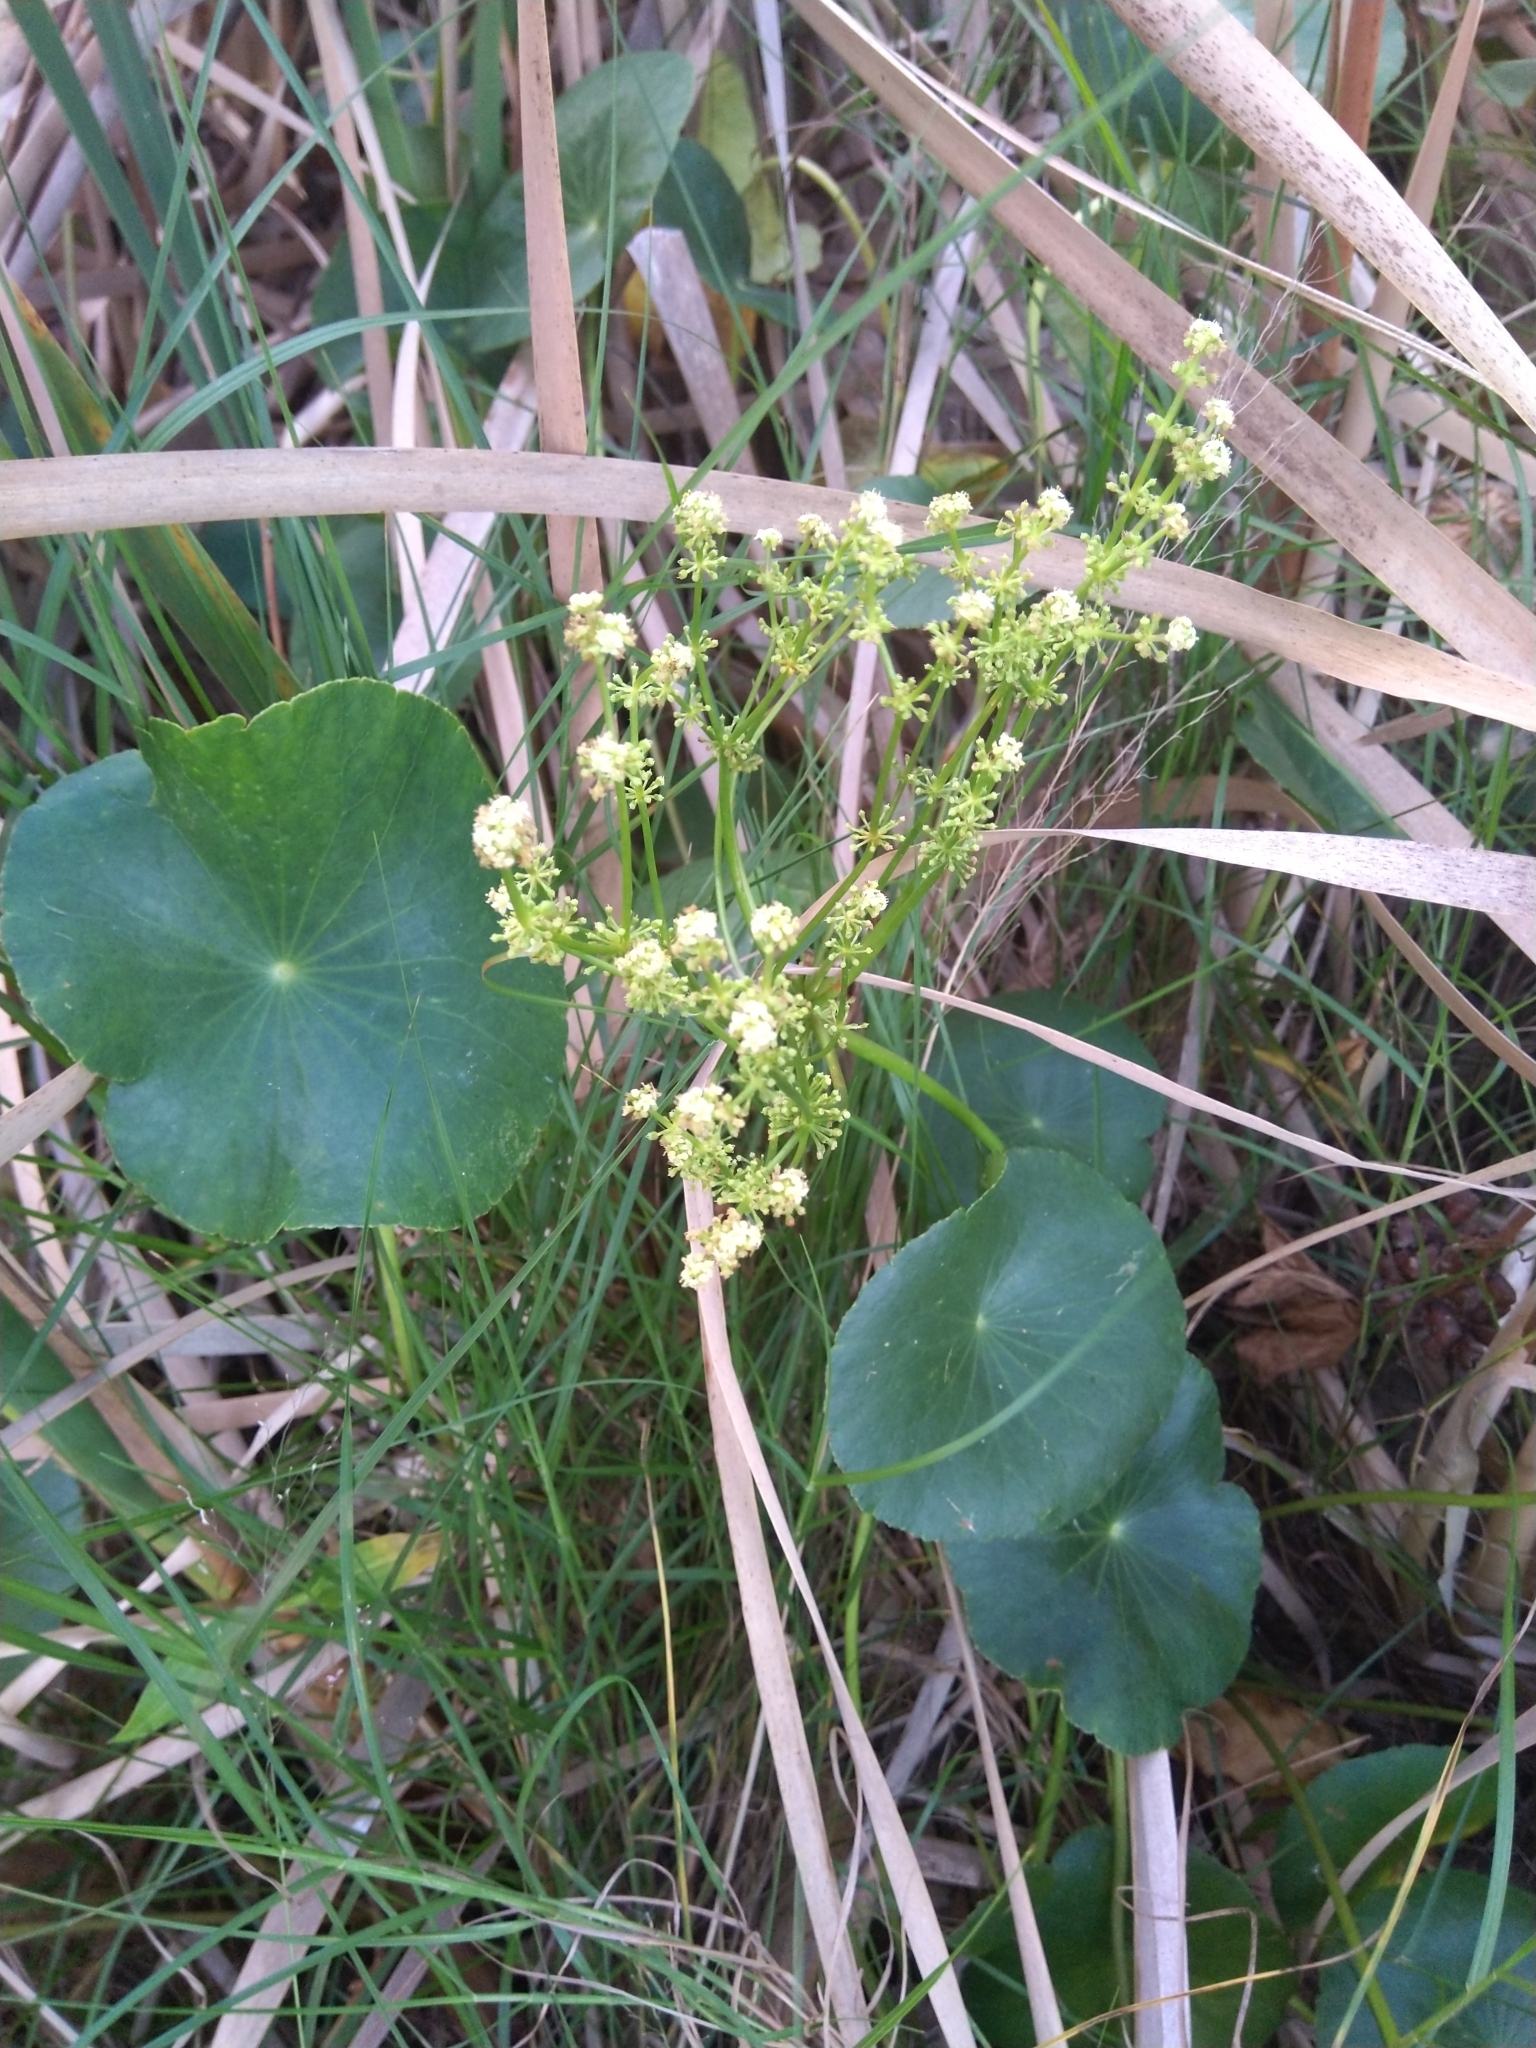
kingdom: Plantae
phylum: Tracheophyta
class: Magnoliopsida
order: Apiales
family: Araliaceae
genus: Hydrocotyle
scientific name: Hydrocotyle bonariensis
